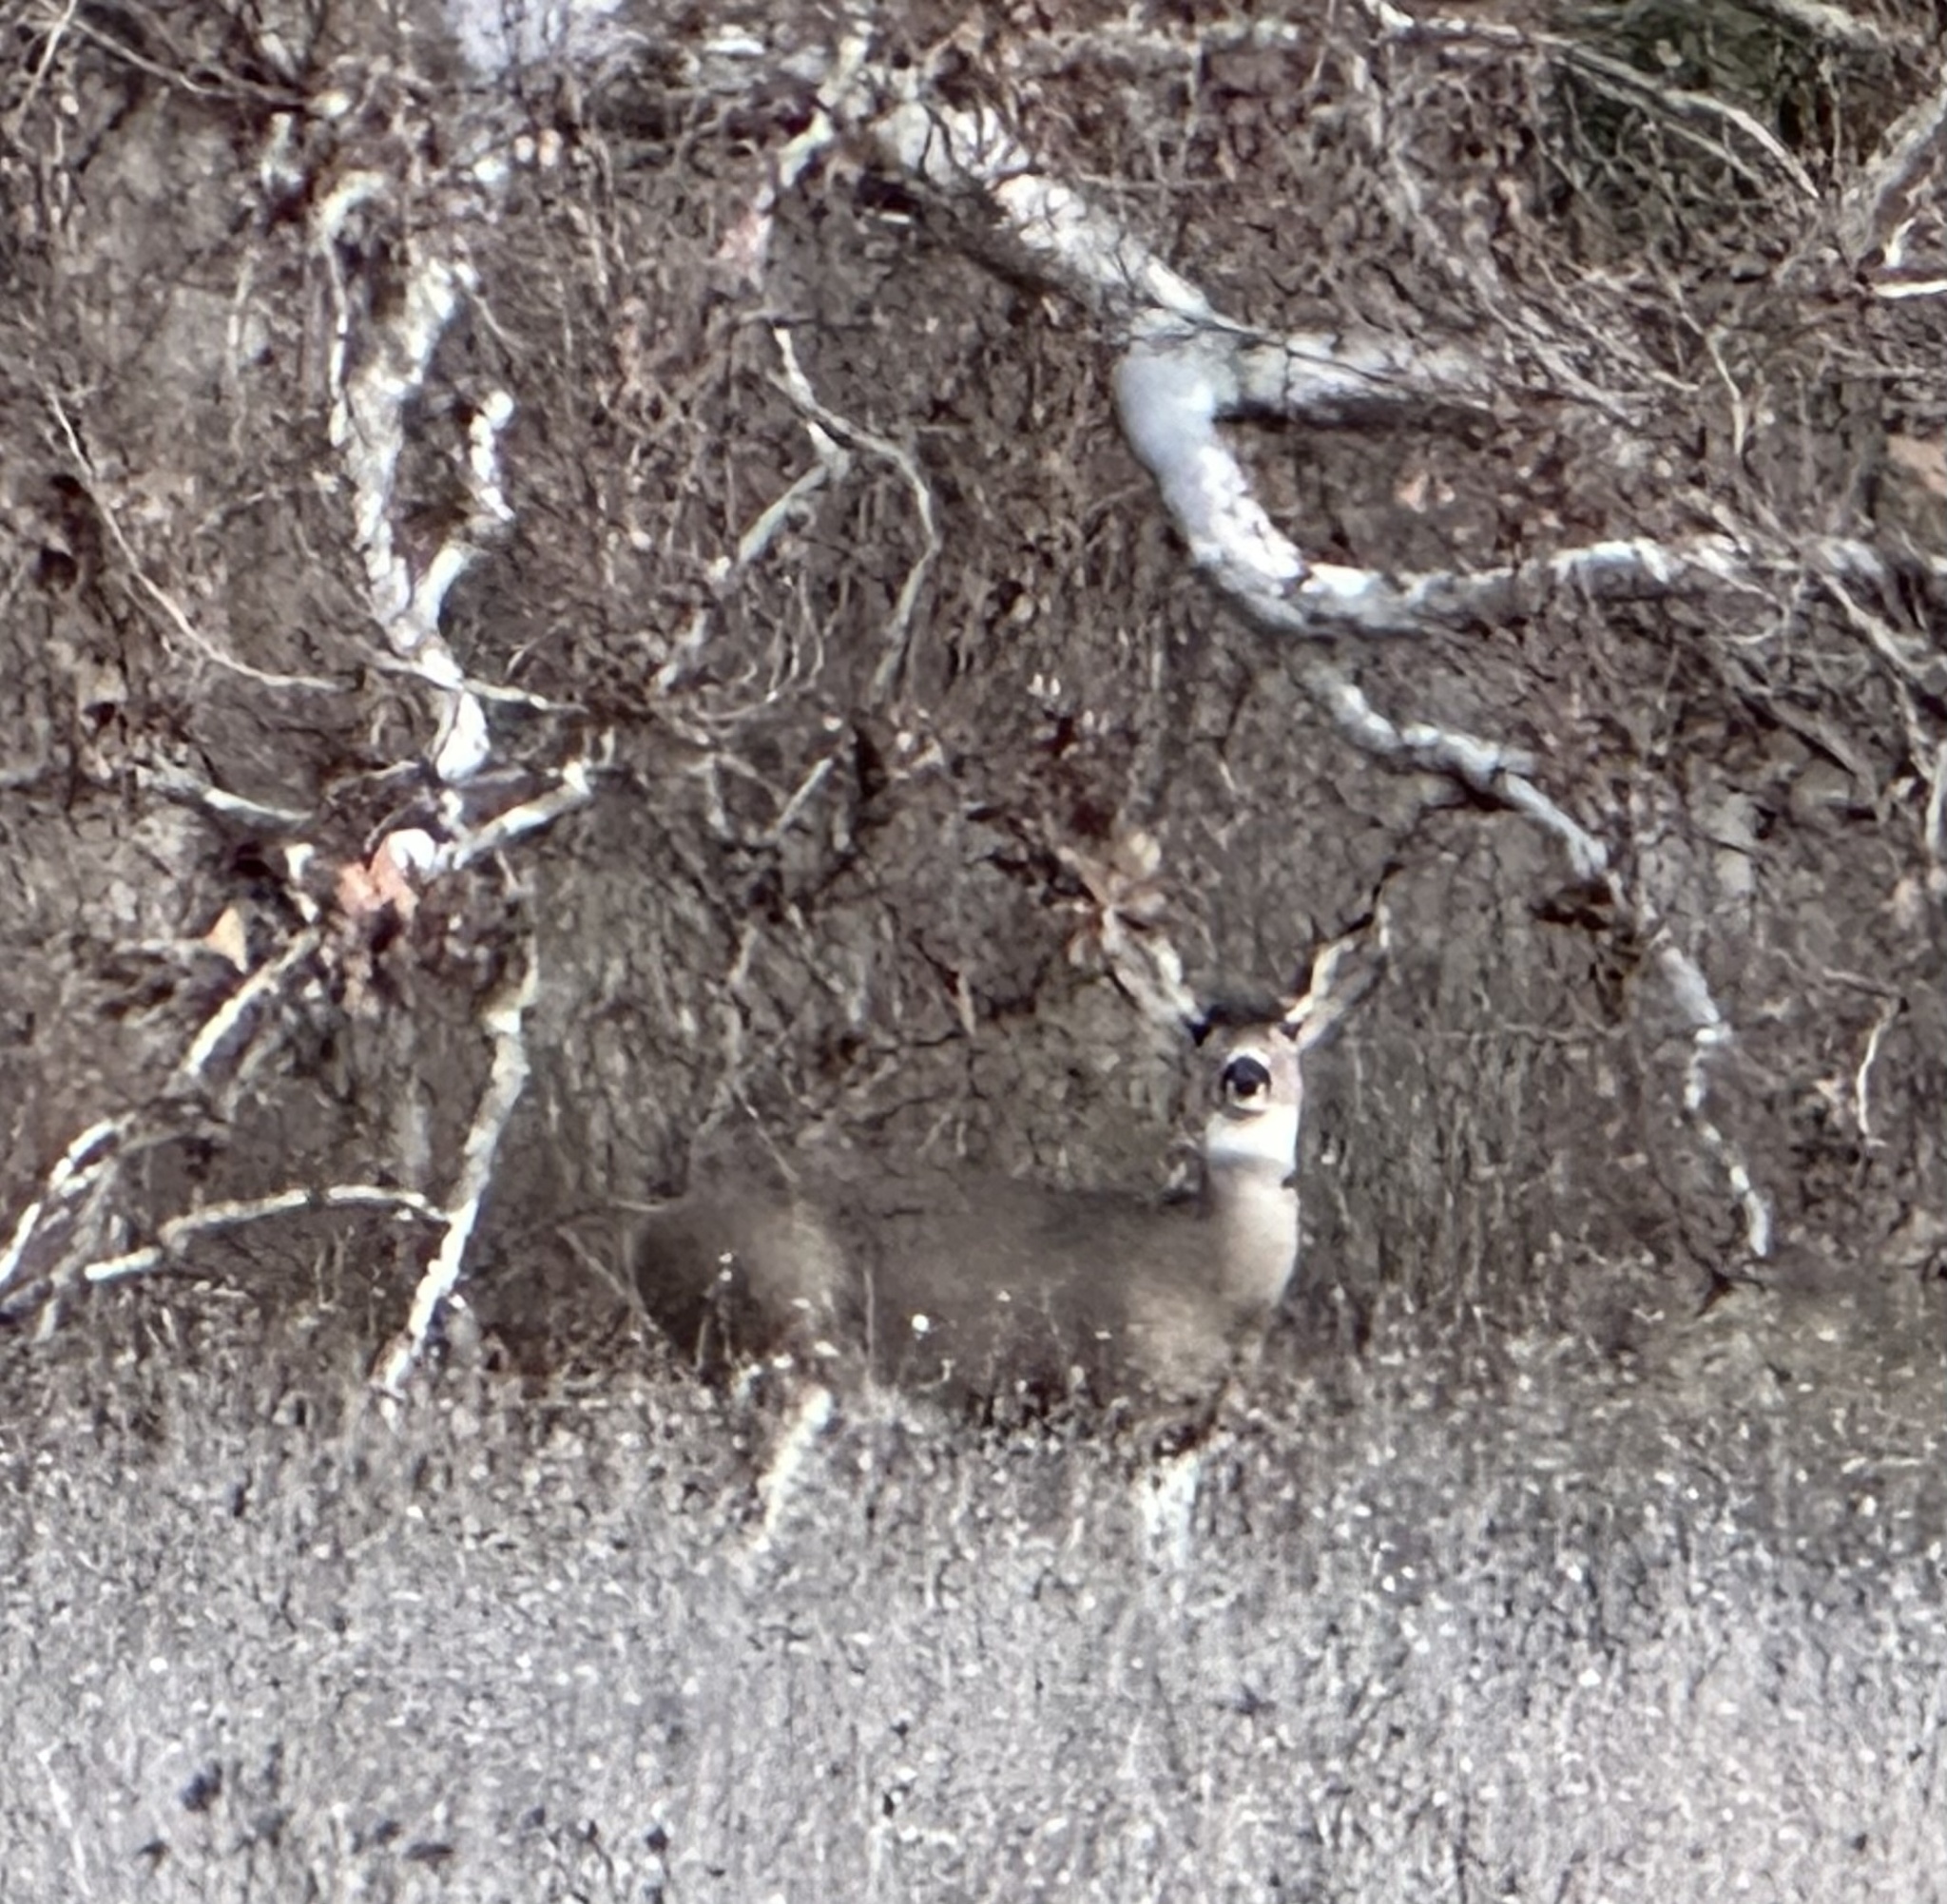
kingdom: Animalia
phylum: Chordata
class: Mammalia
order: Artiodactyla
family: Cervidae
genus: Odocoileus
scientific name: Odocoileus hemionus
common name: Mule deer
